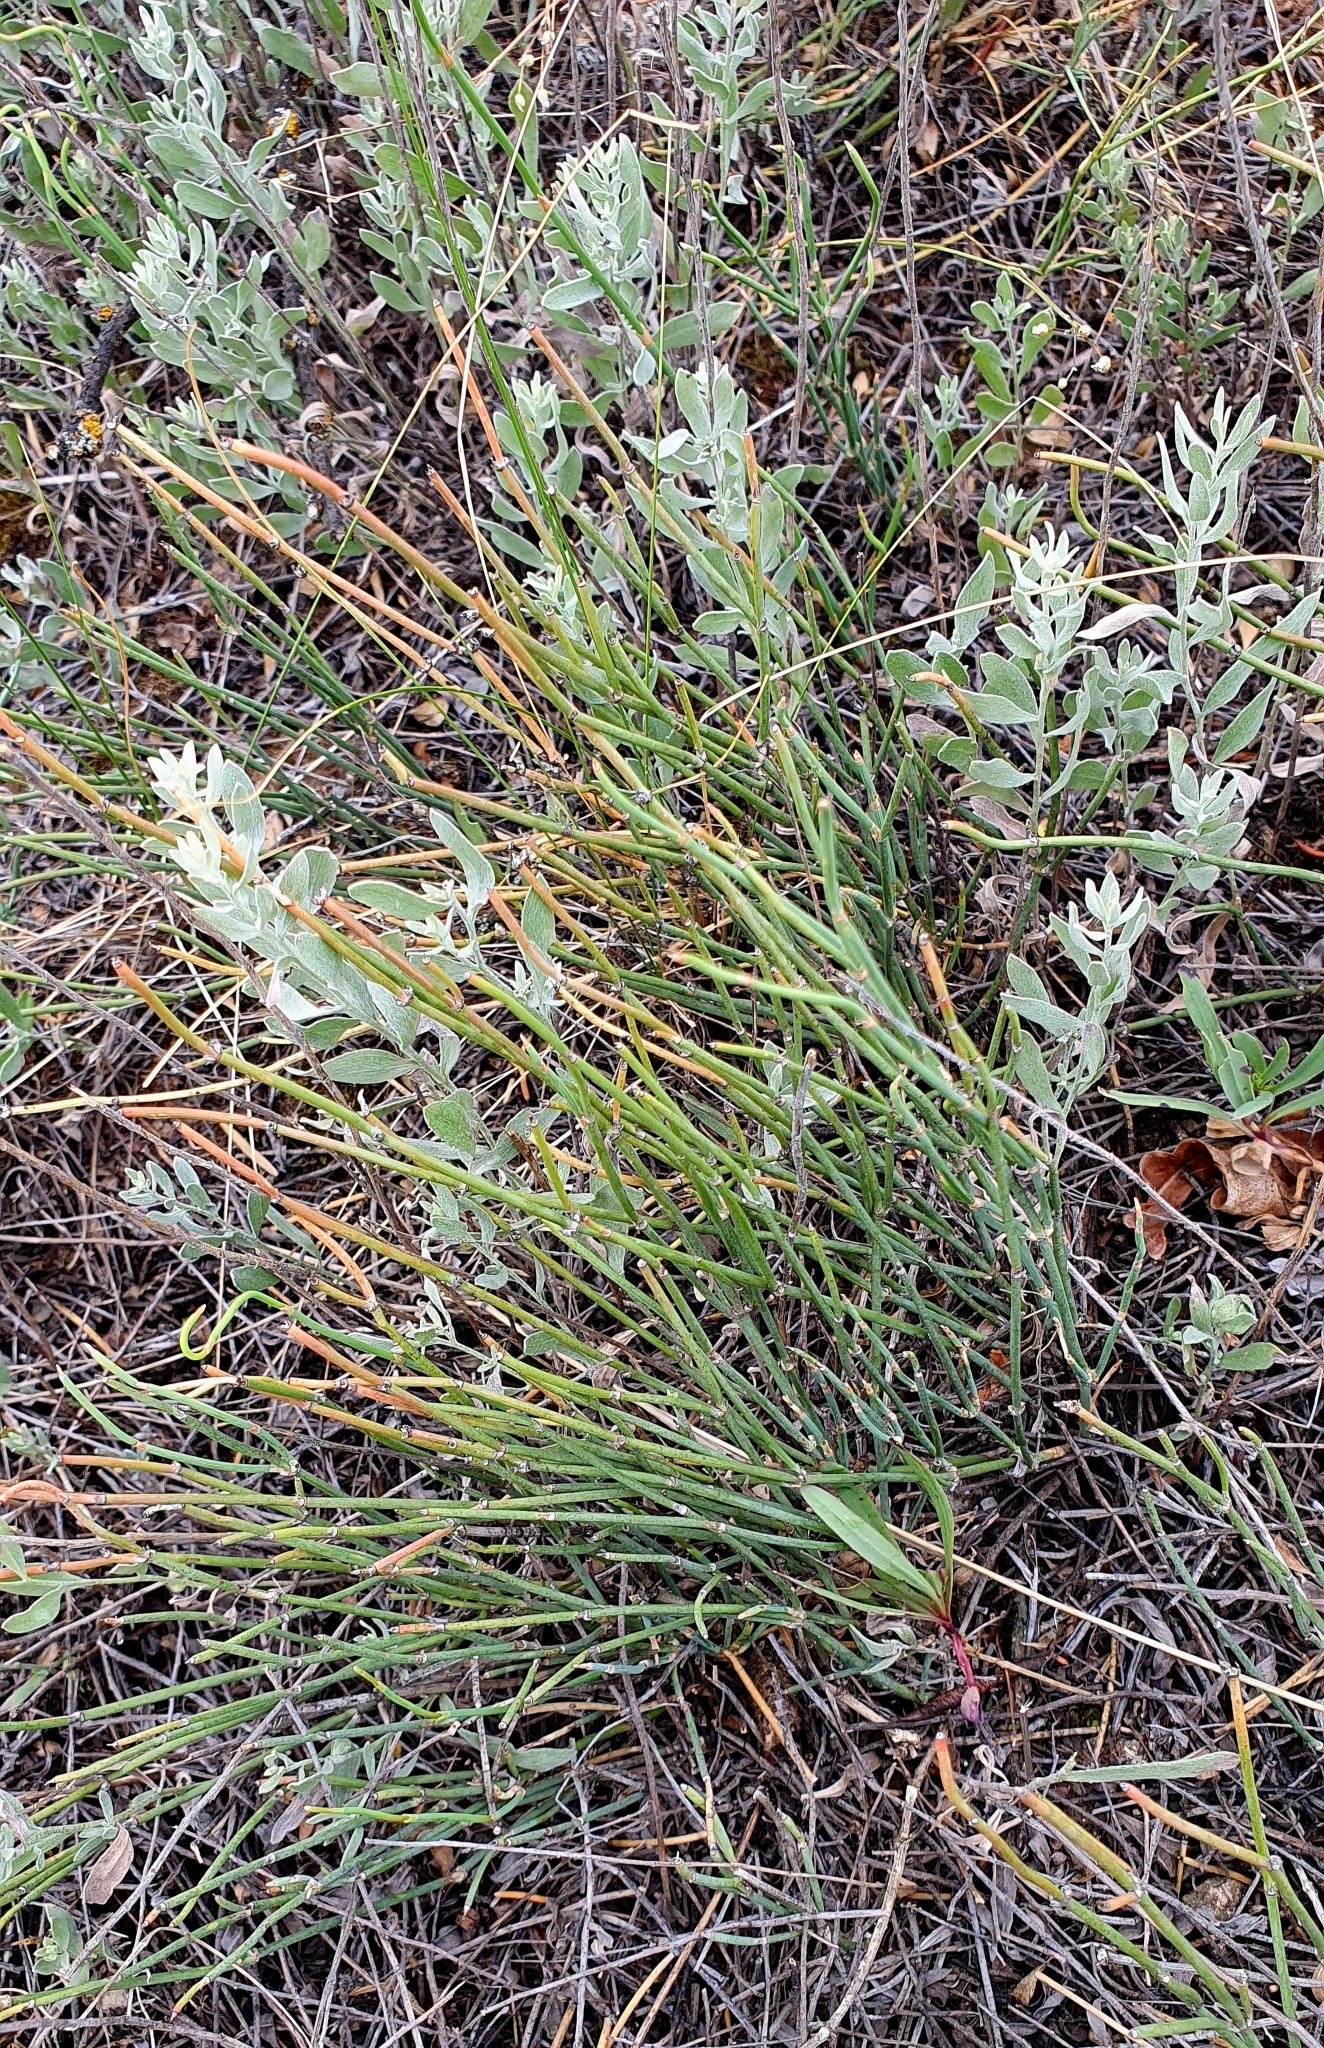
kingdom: Plantae
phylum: Tracheophyta
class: Gnetopsida
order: Ephedrales
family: Ephedraceae
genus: Ephedra
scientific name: Ephedra distachya
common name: Sea grape
